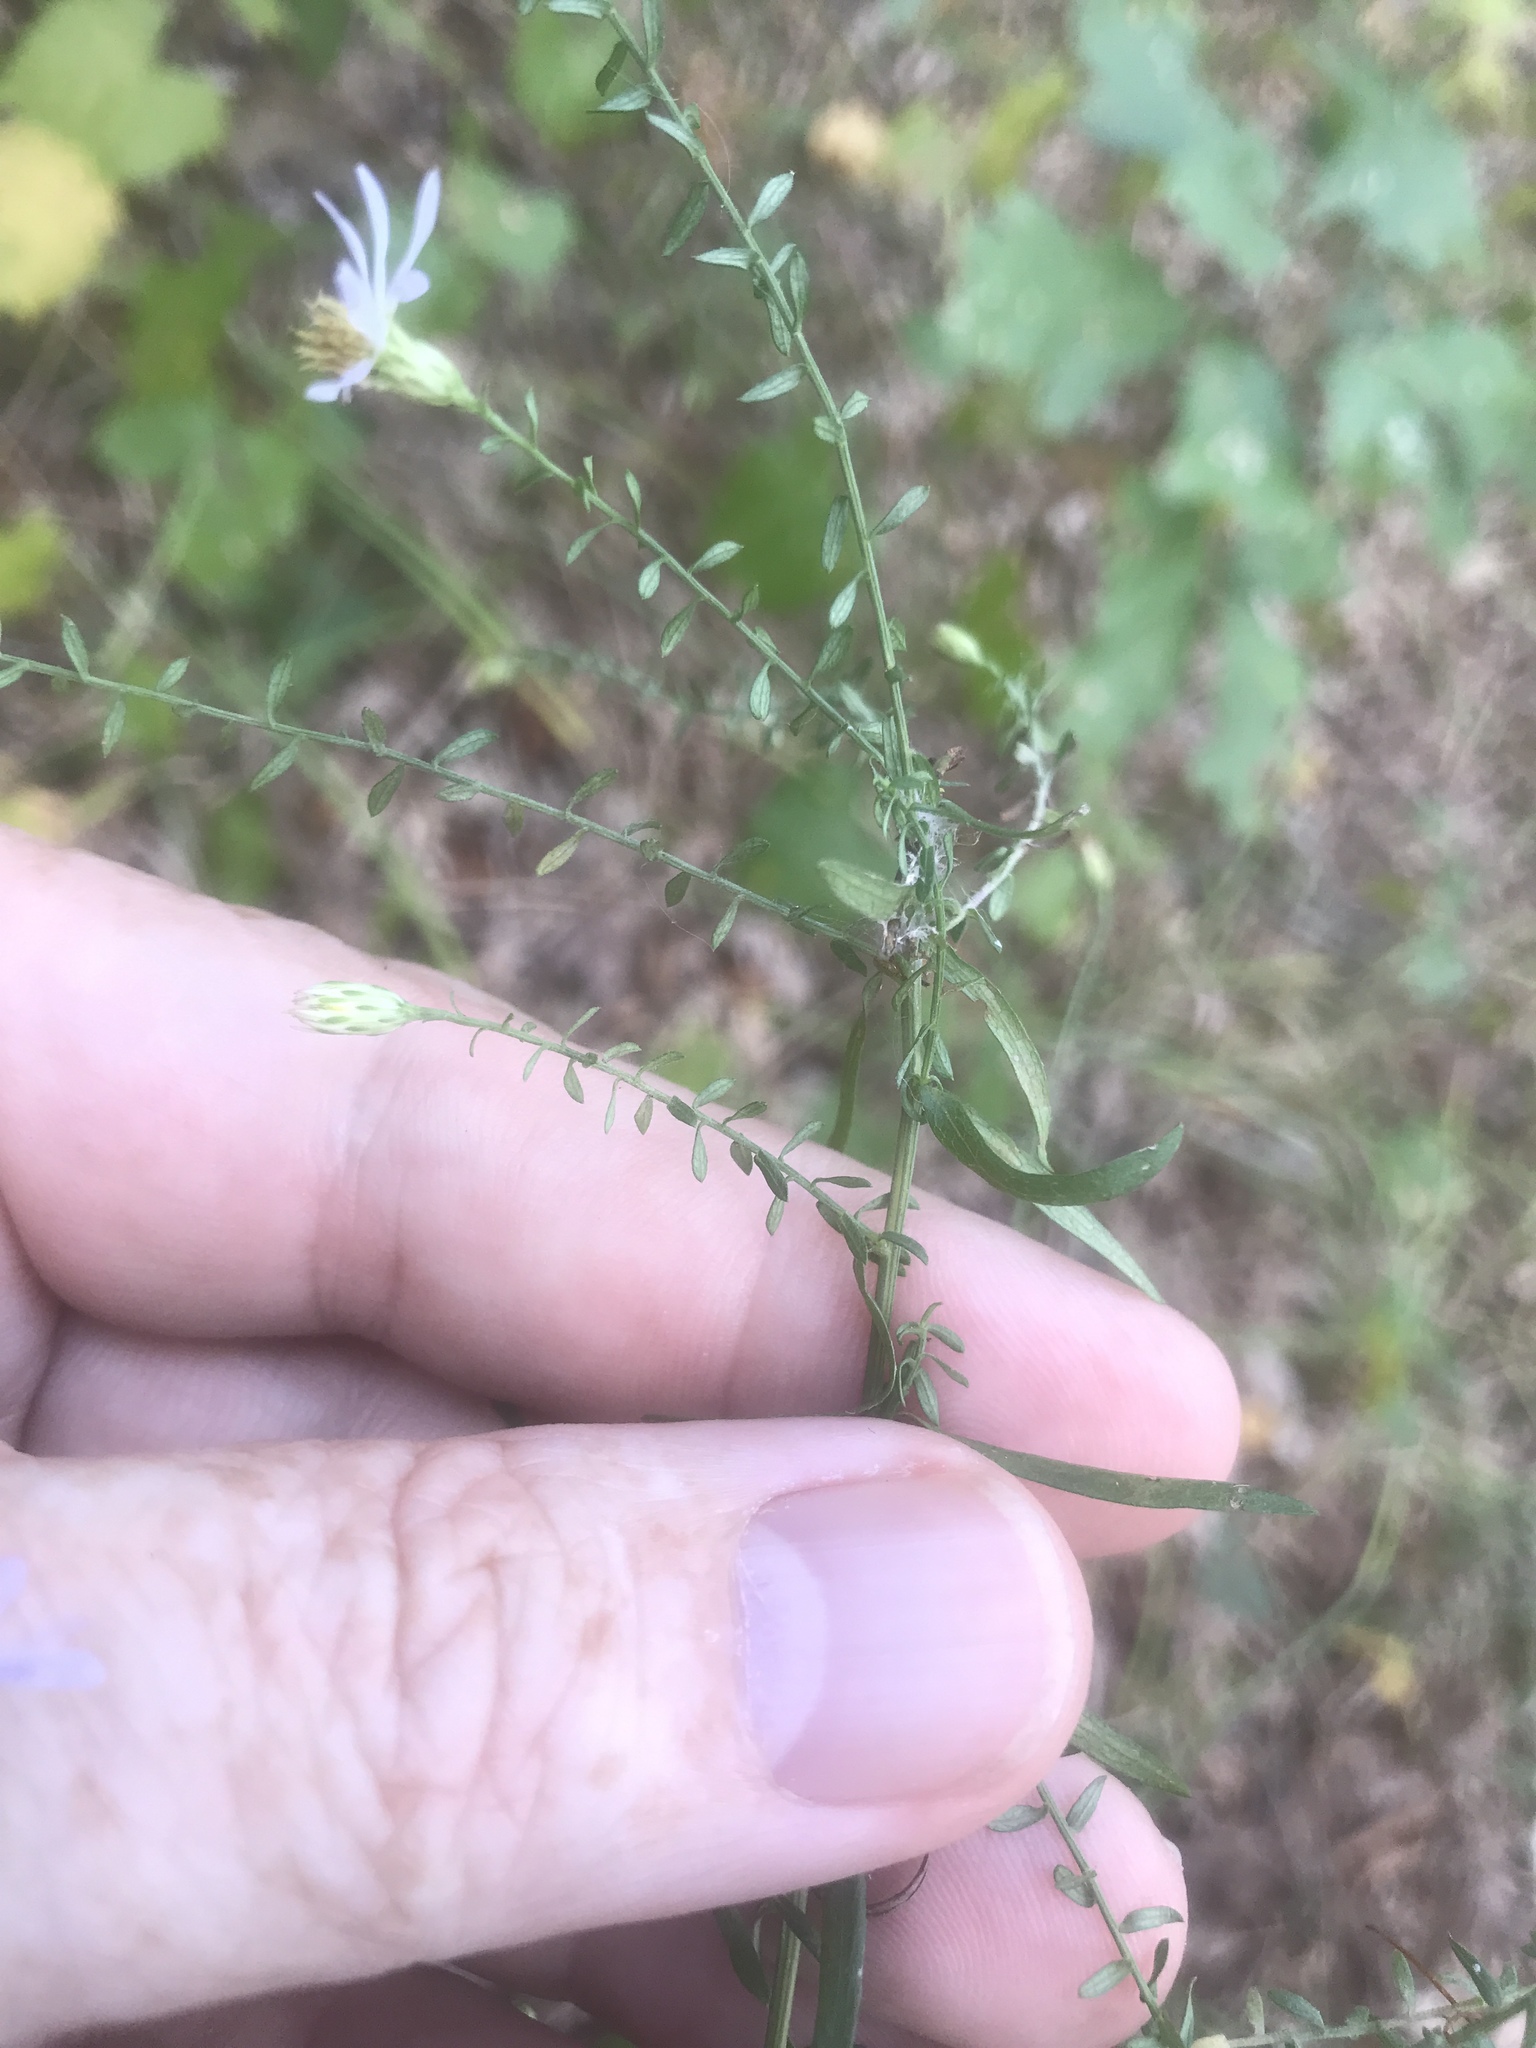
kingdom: Plantae
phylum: Tracheophyta
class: Magnoliopsida
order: Asterales
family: Asteraceae
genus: Symphyotrichum
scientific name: Symphyotrichum dumosum
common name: Bushy aster
